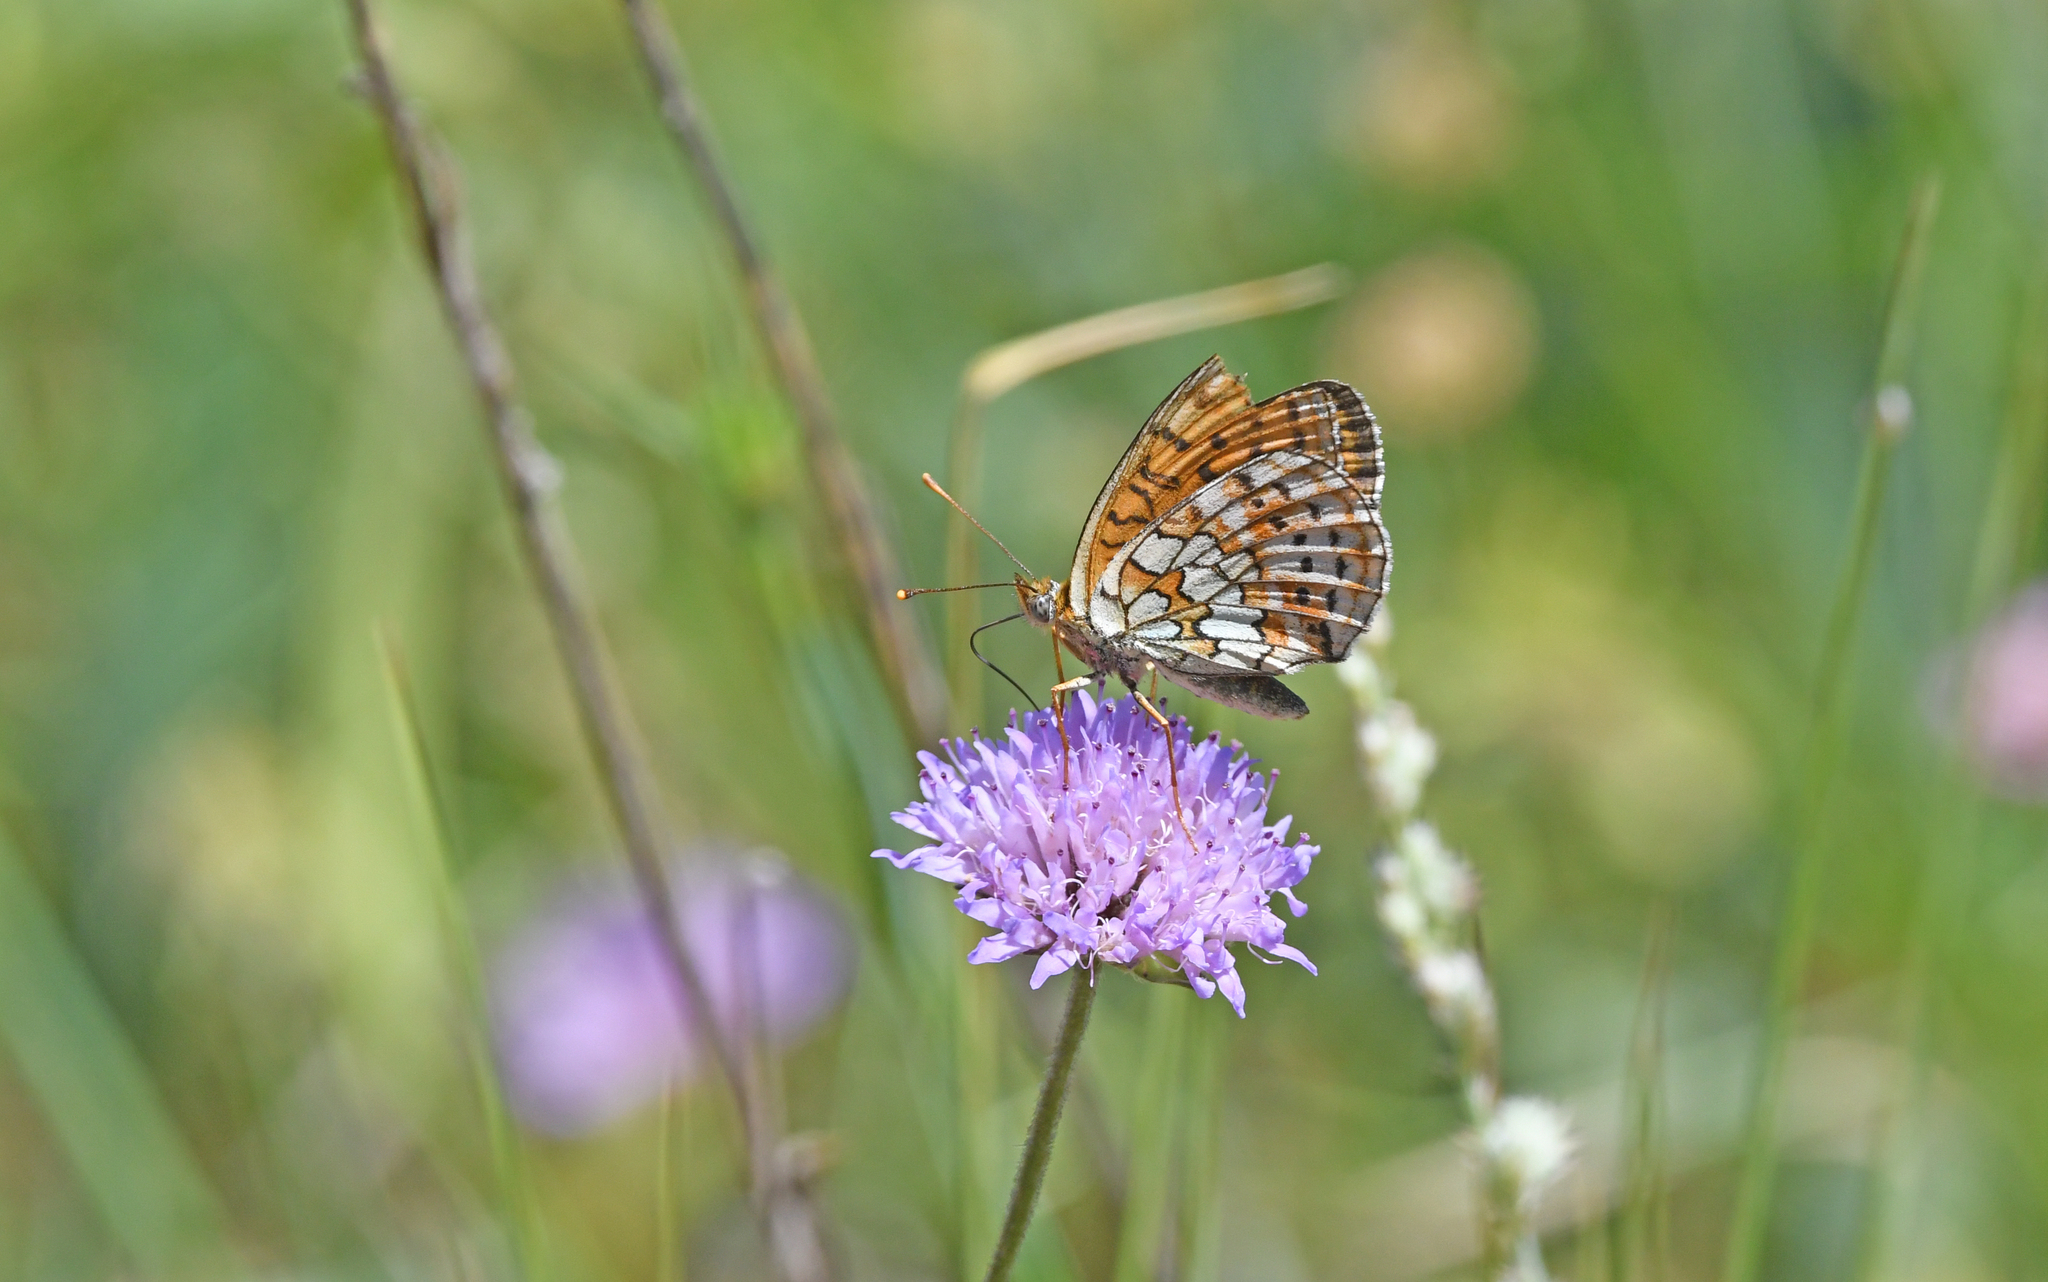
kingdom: Animalia
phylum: Arthropoda
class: Insecta
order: Lepidoptera
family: Nymphalidae
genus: Brenthis
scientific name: Brenthis hecate
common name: Twin-spot fritillary
